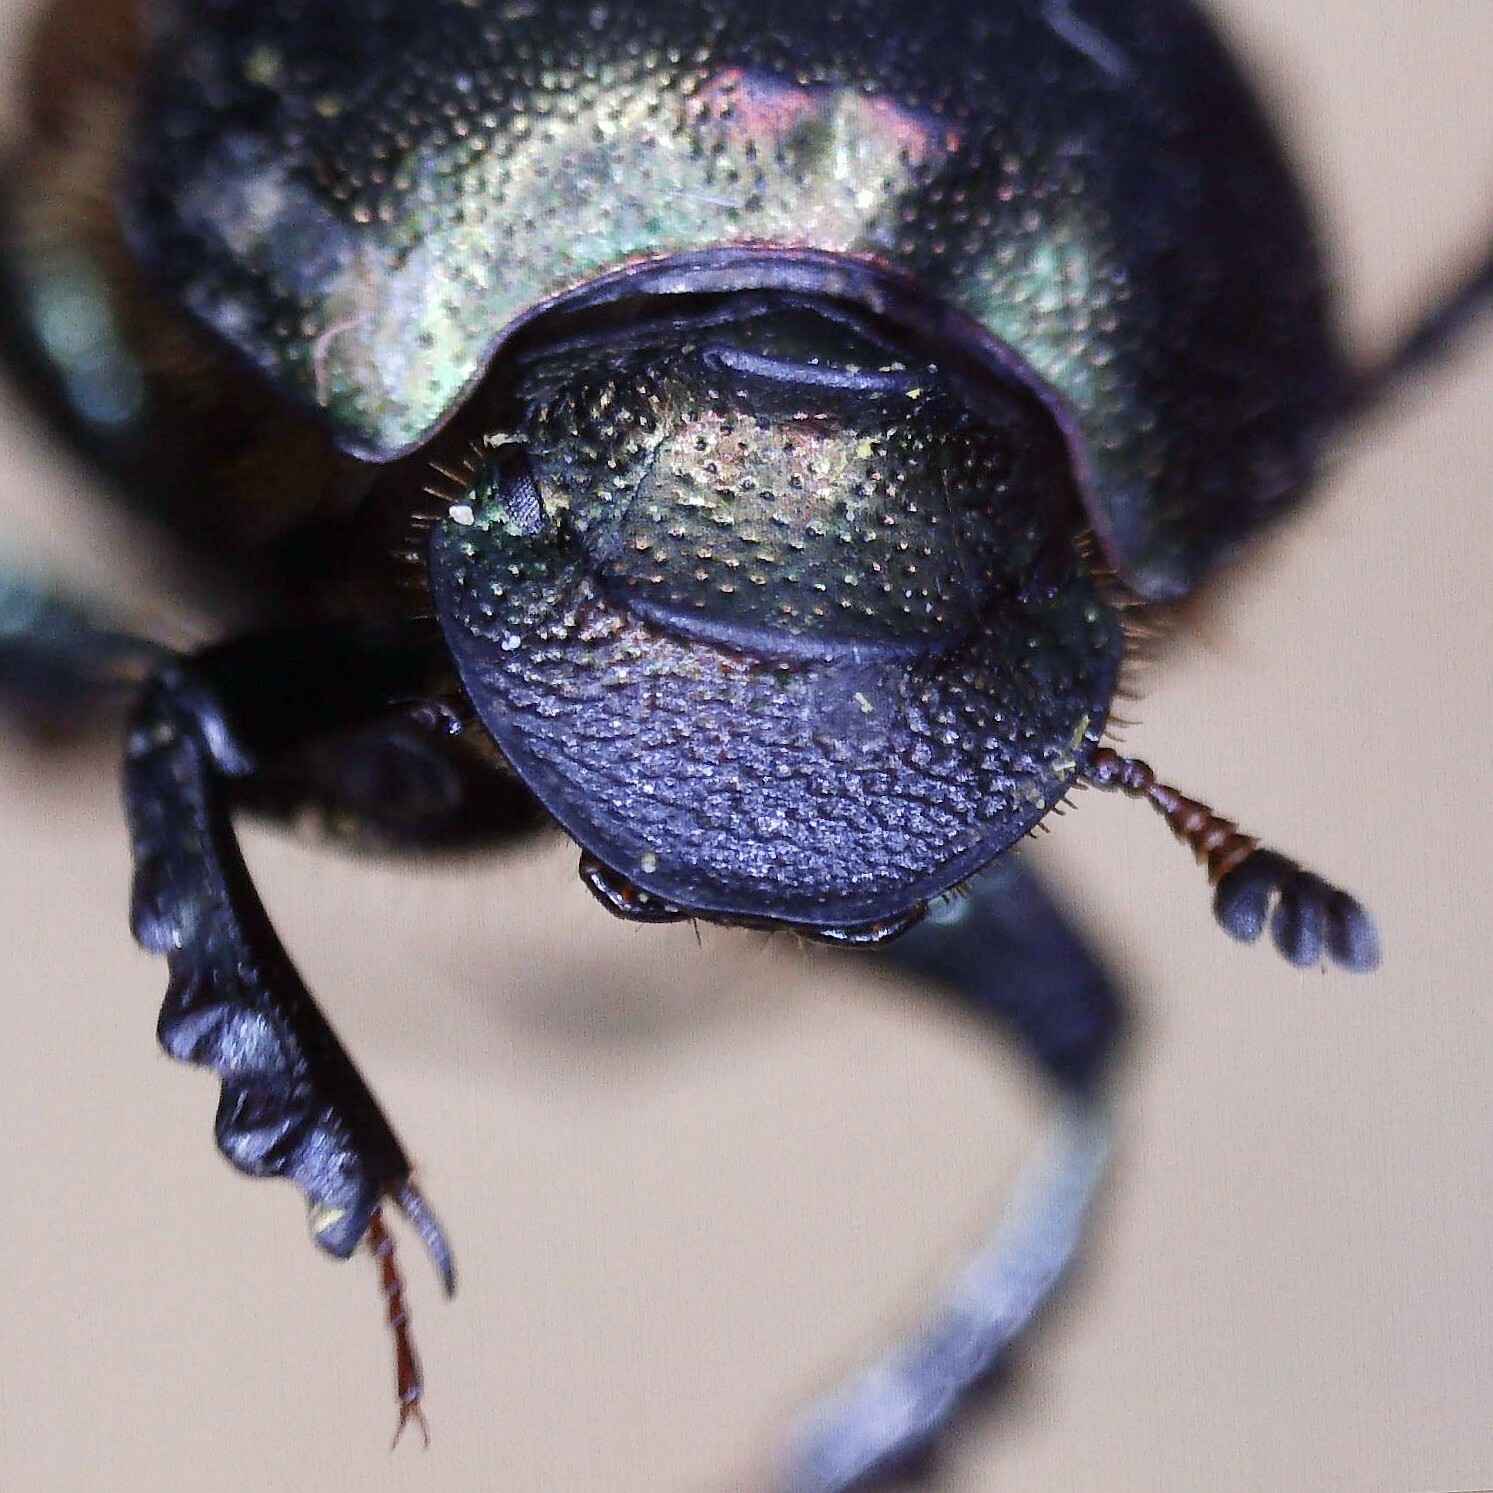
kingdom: Animalia
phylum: Arthropoda
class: Insecta
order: Coleoptera
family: Scarabaeidae
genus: Onthophagus
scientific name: Onthophagus coenobita
